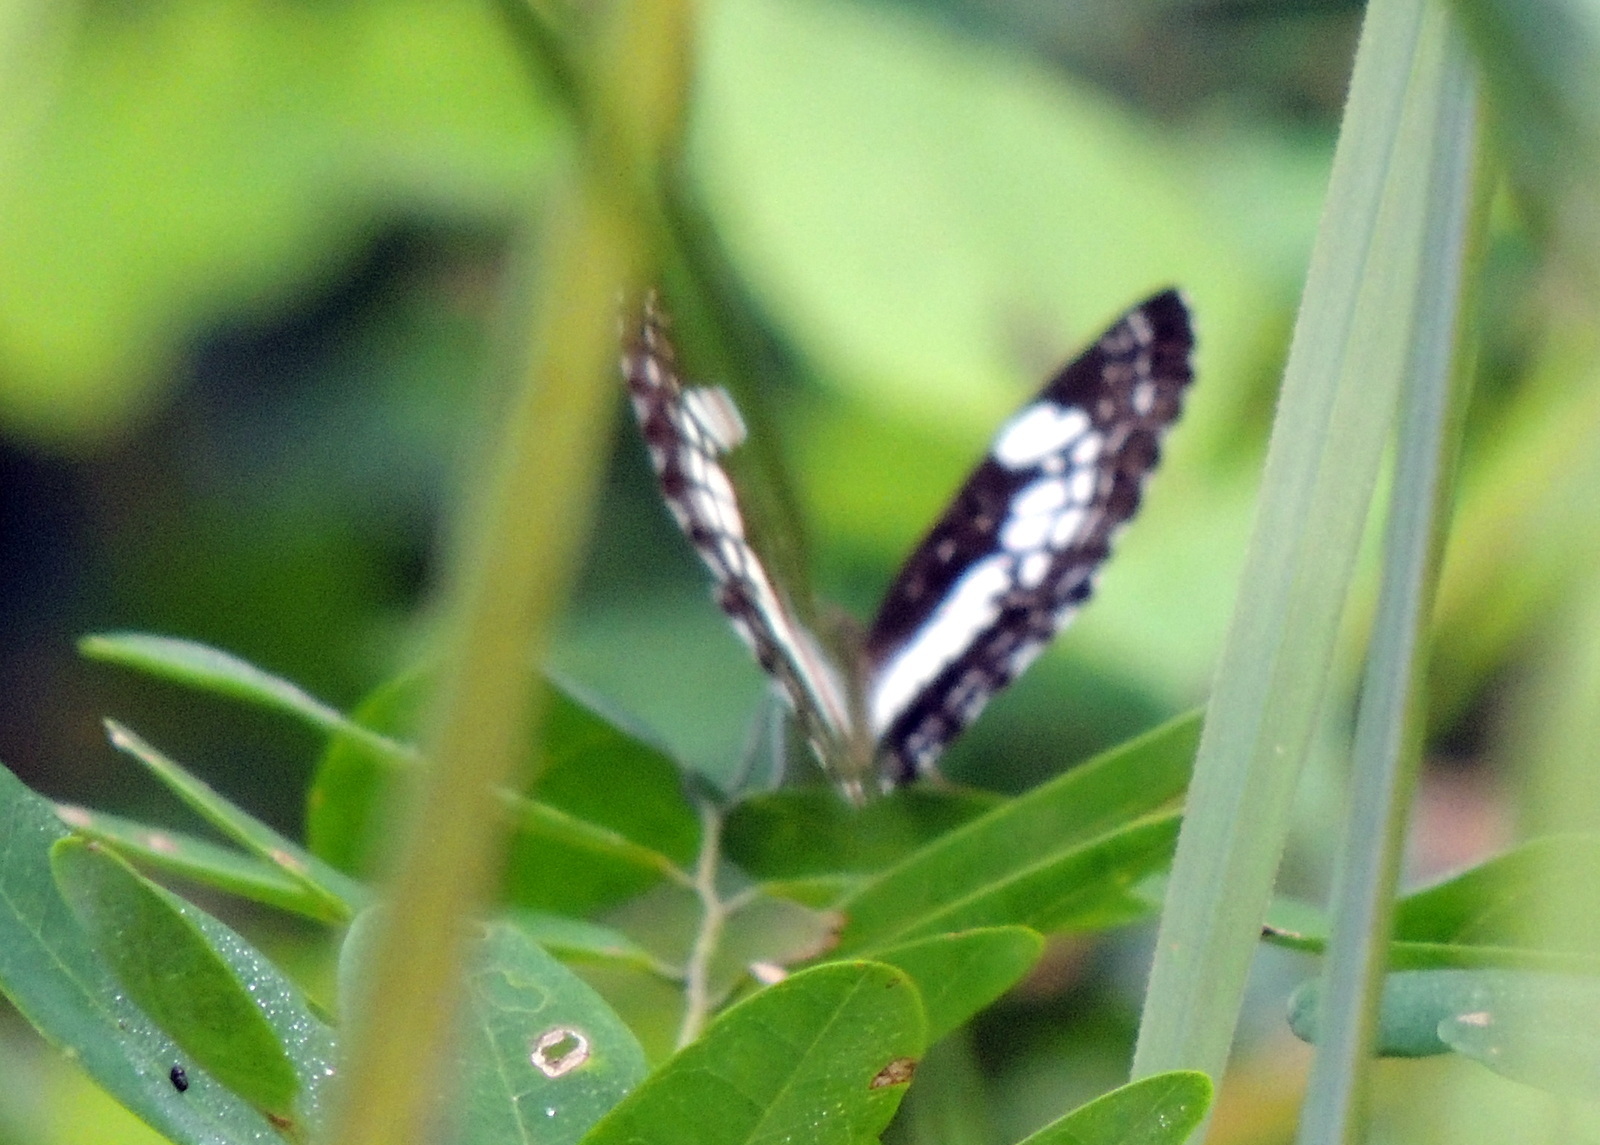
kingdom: Animalia
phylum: Arthropoda
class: Insecta
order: Lepidoptera
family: Nymphalidae
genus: Neptidopsis
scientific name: Neptidopsis ophione
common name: Scalloped false sailor
